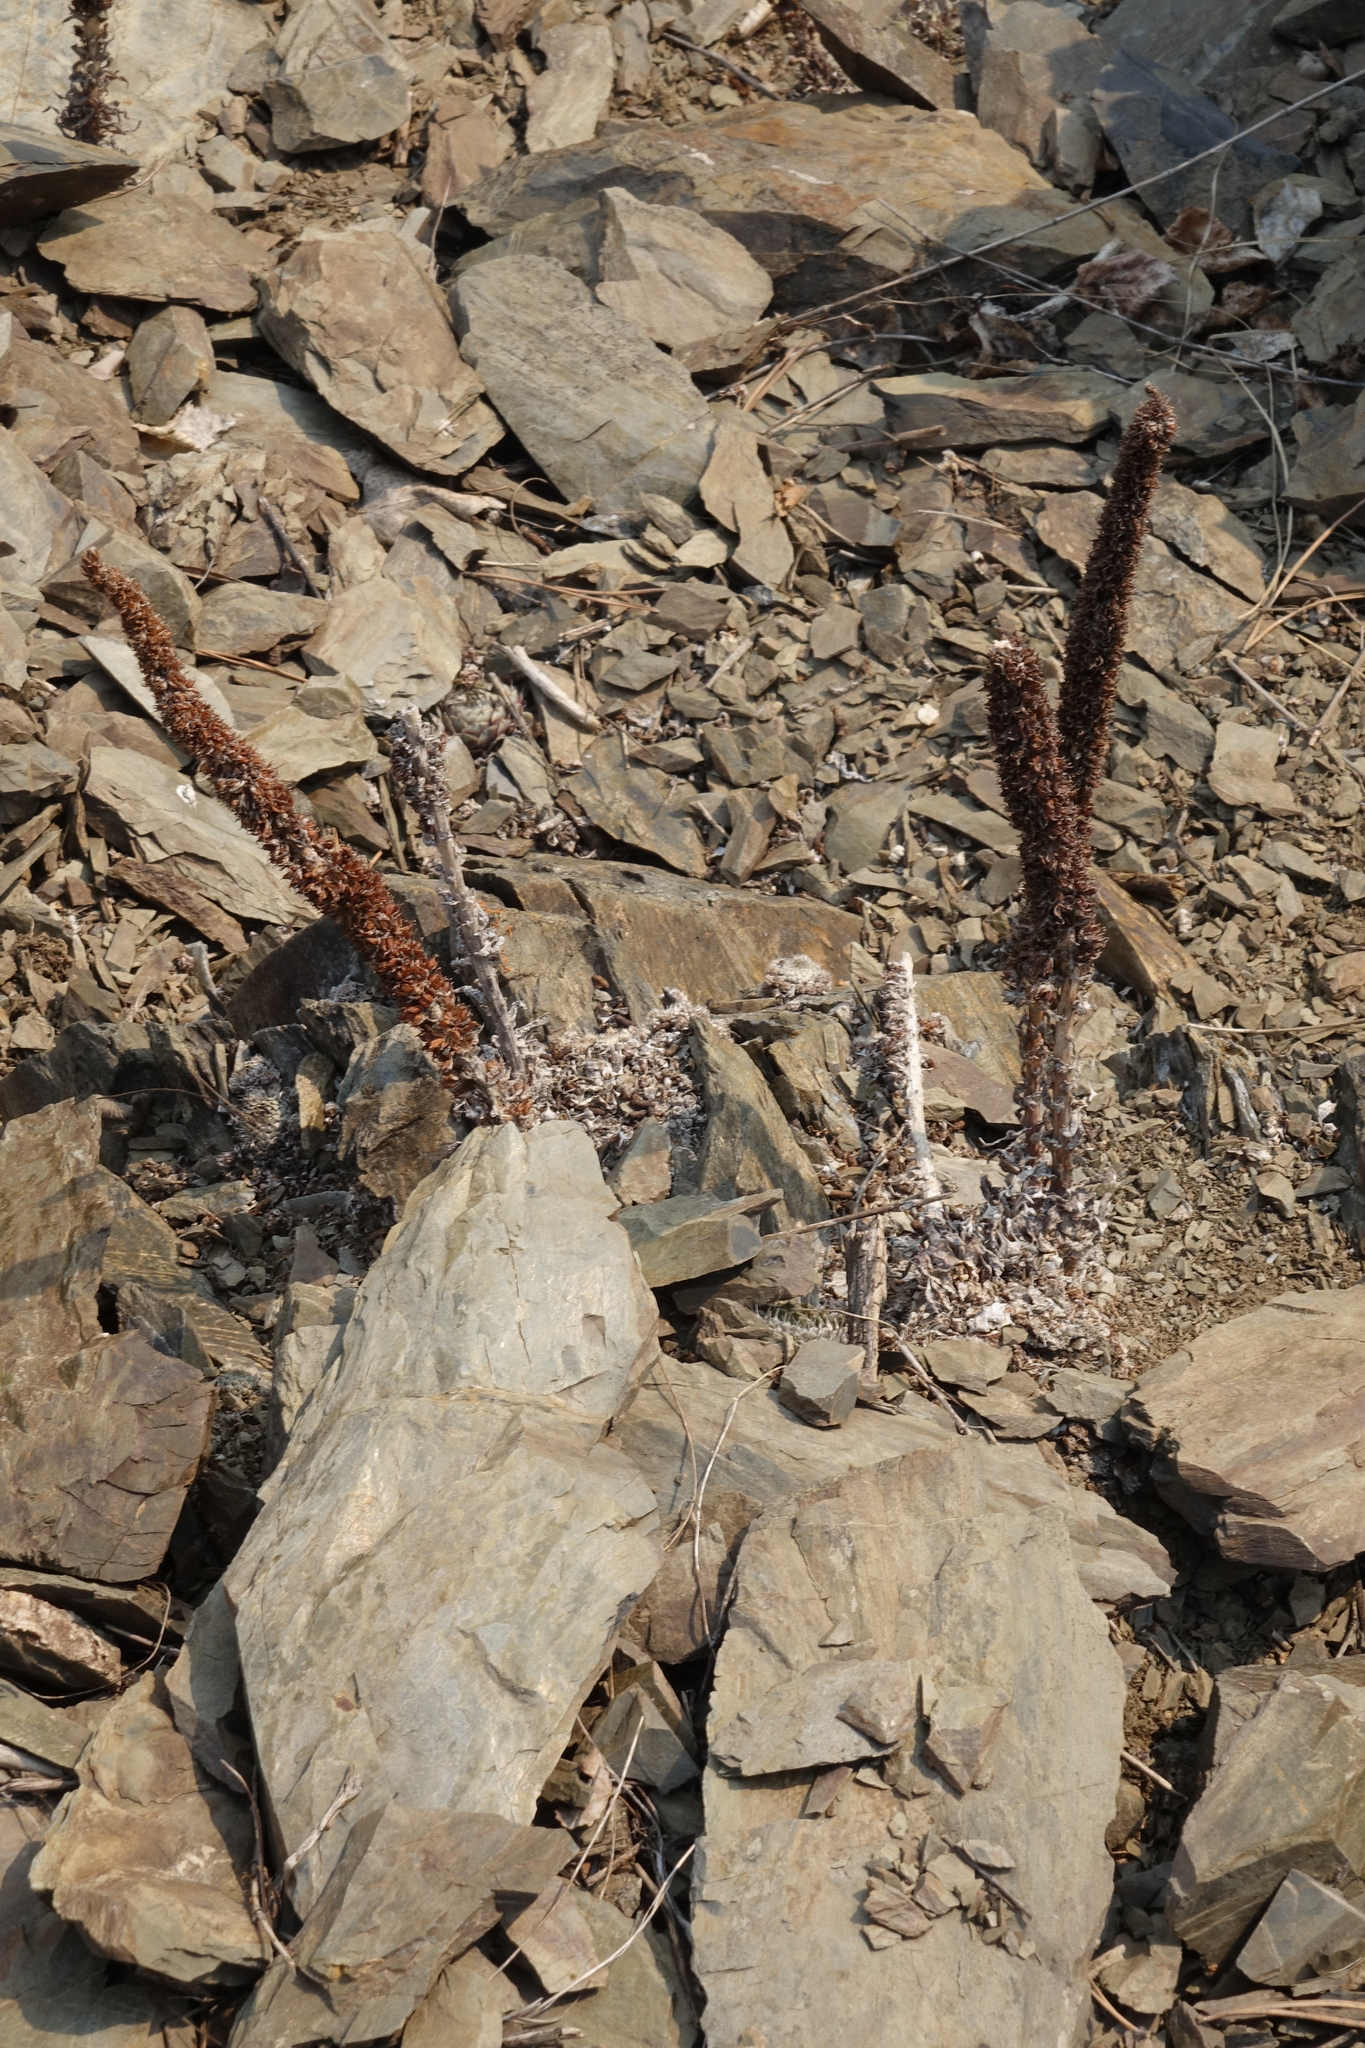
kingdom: Plantae
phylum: Tracheophyta
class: Magnoliopsida
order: Saxifragales
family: Crassulaceae
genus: Orostachys
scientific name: Orostachys spinosa
